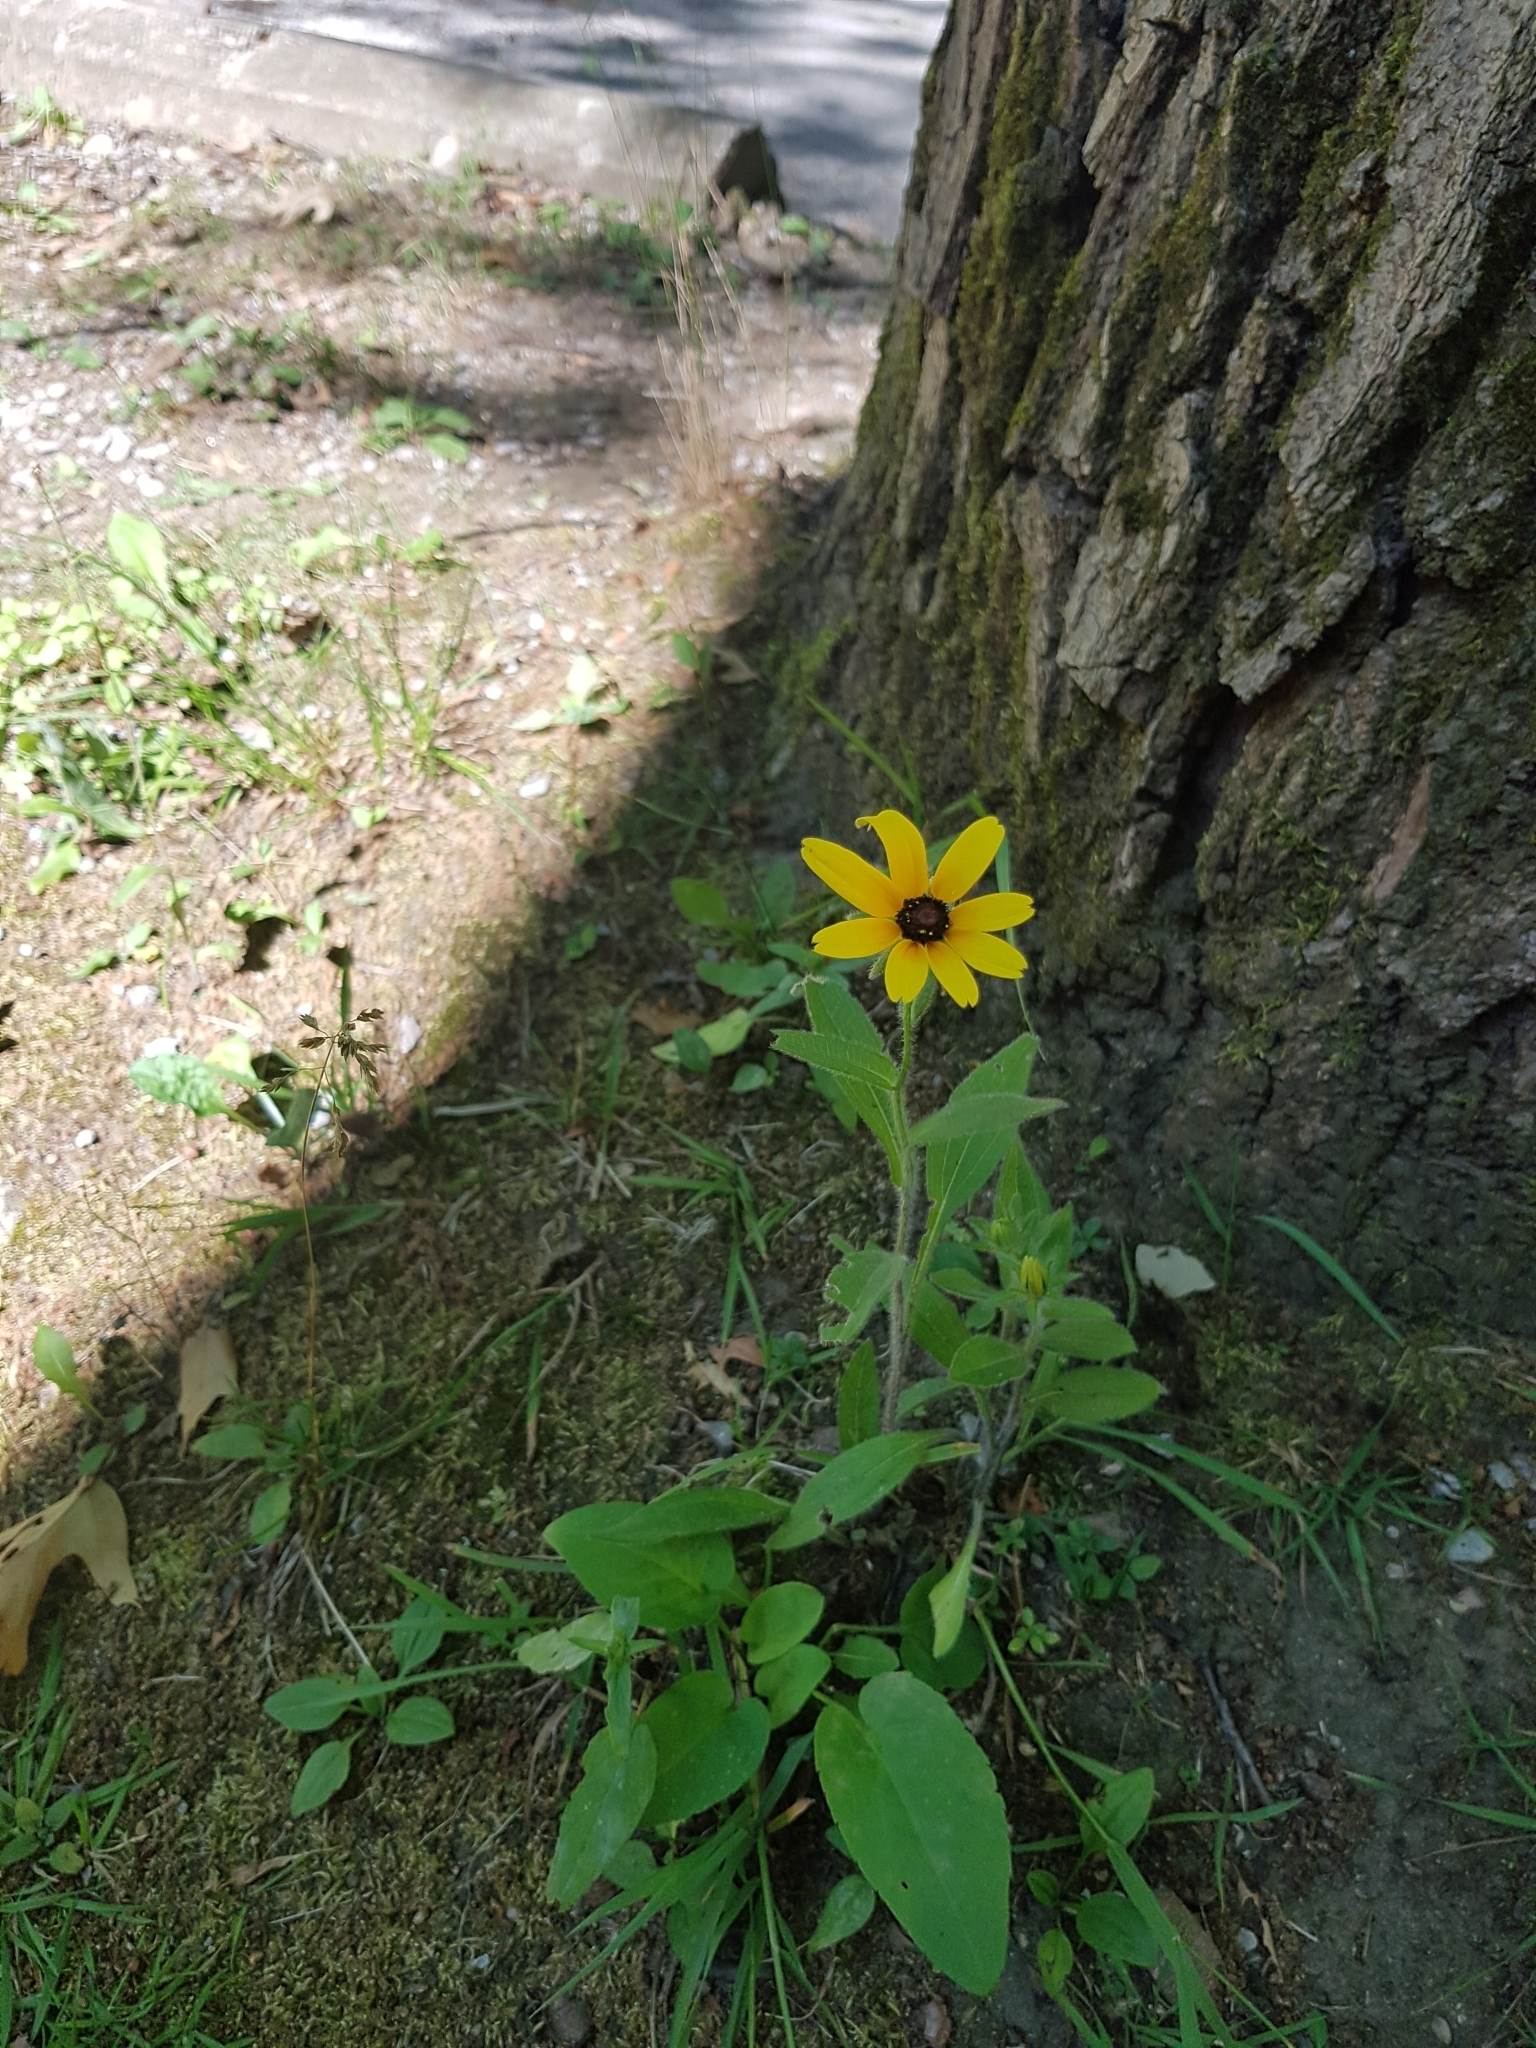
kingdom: Plantae
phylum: Tracheophyta
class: Magnoliopsida
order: Asterales
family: Asteraceae
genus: Rudbeckia
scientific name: Rudbeckia hirta
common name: Black-eyed-susan
